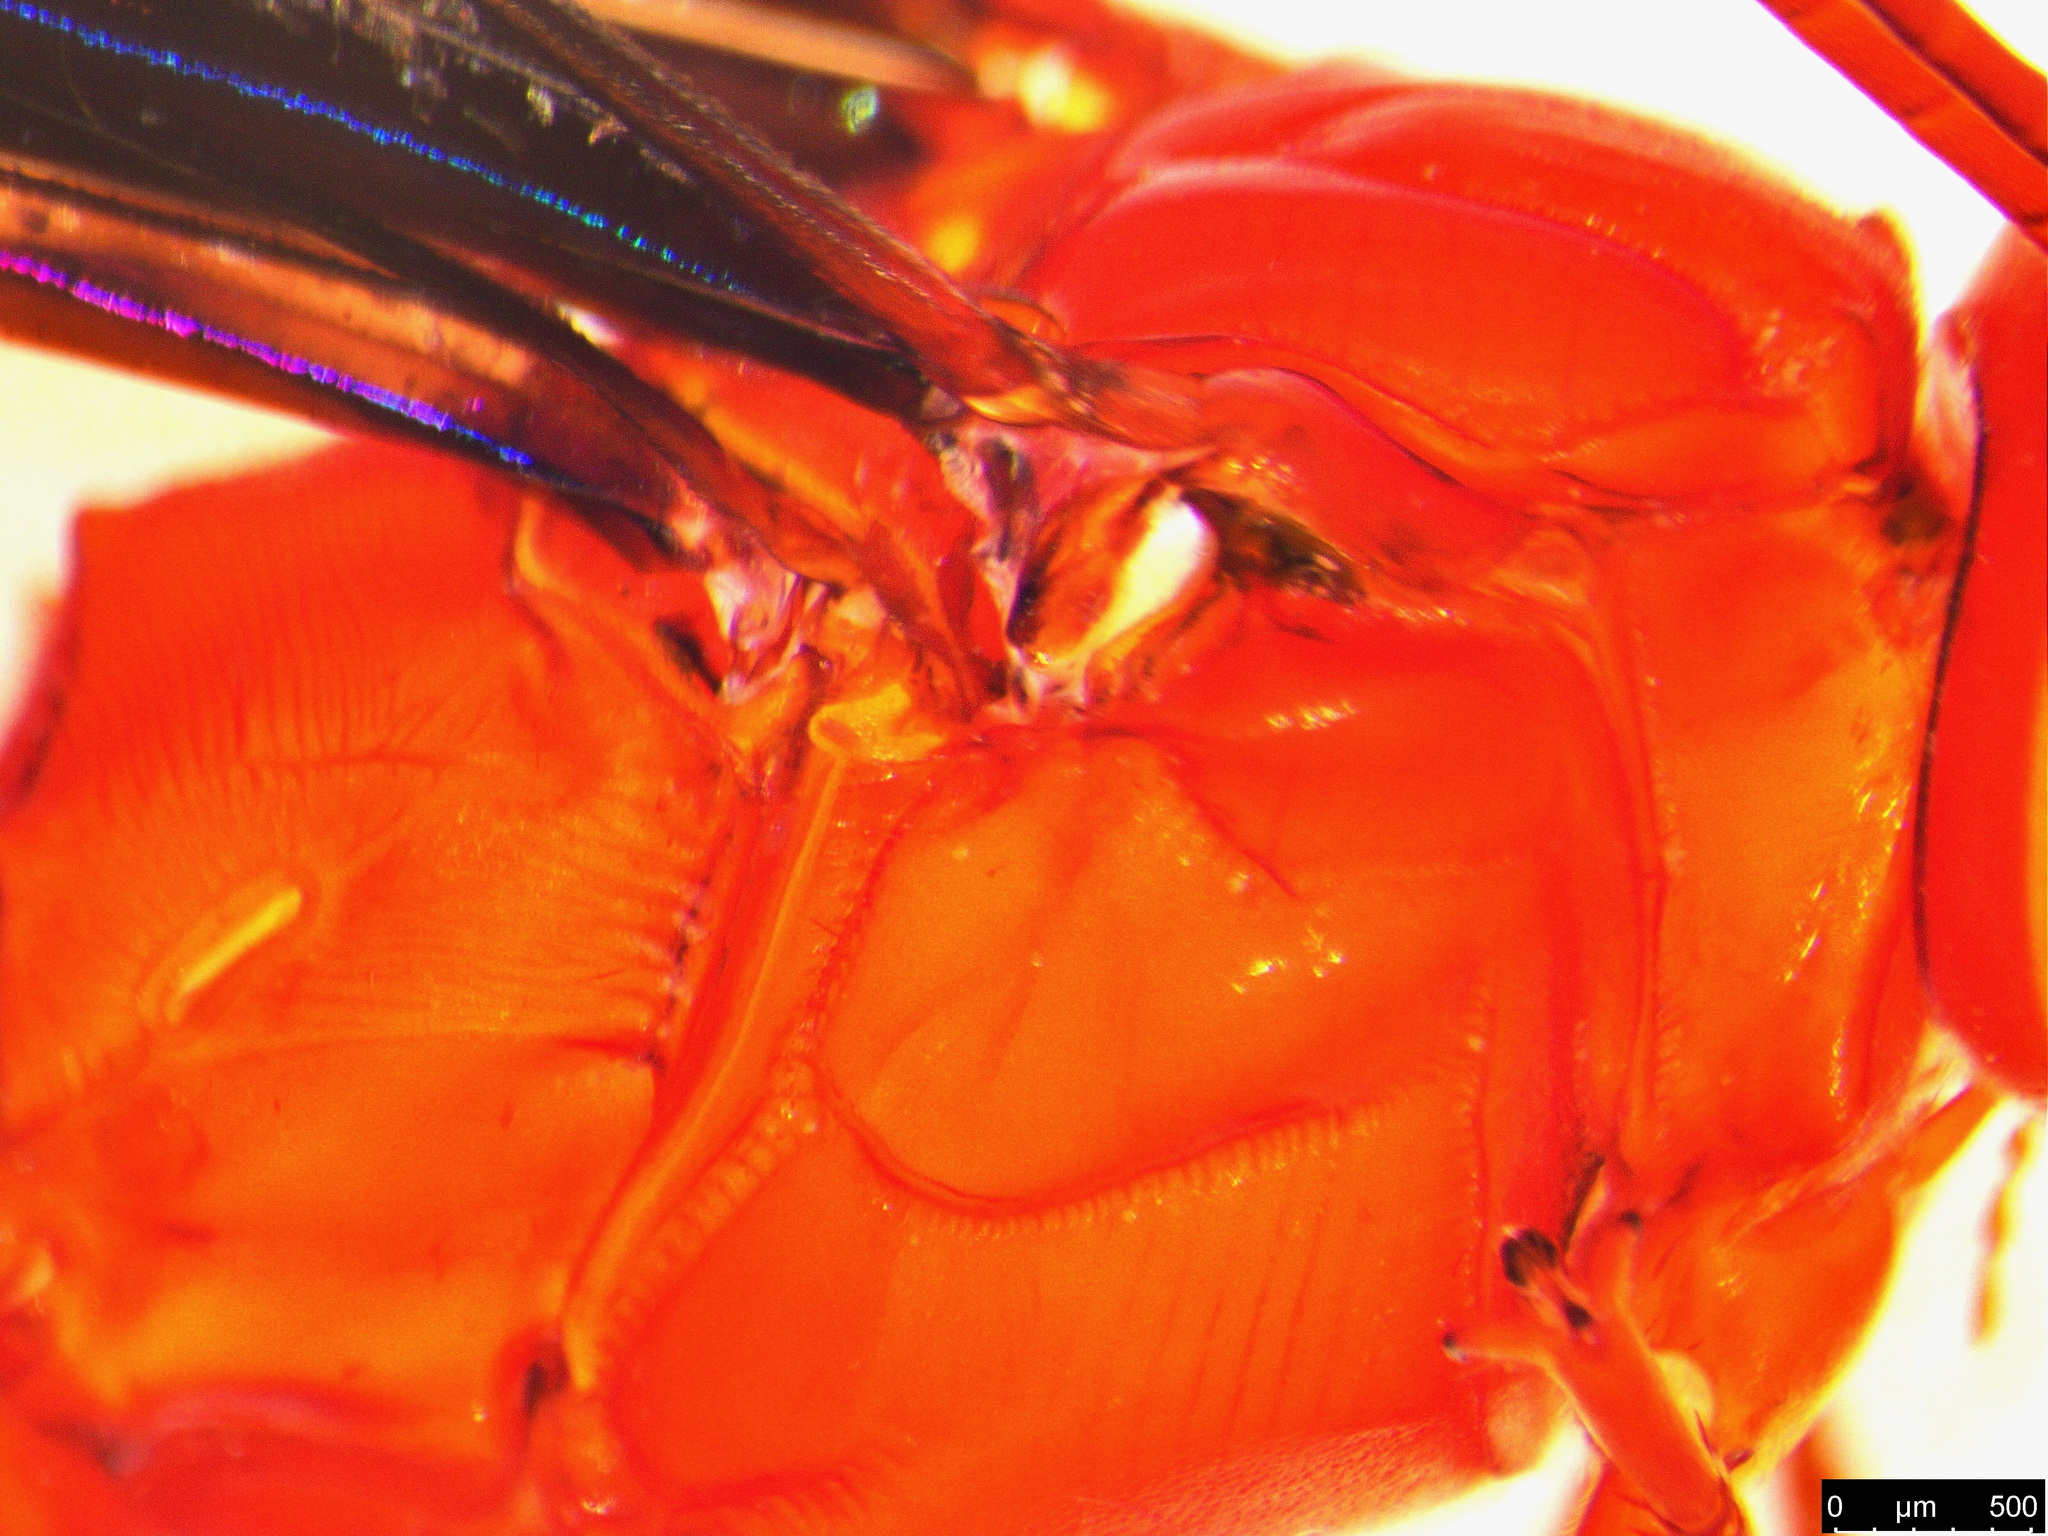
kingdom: Animalia
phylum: Arthropoda
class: Insecta
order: Hymenoptera
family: Ichneumonidae
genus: Lissopimpla
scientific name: Lissopimpla excelsa
